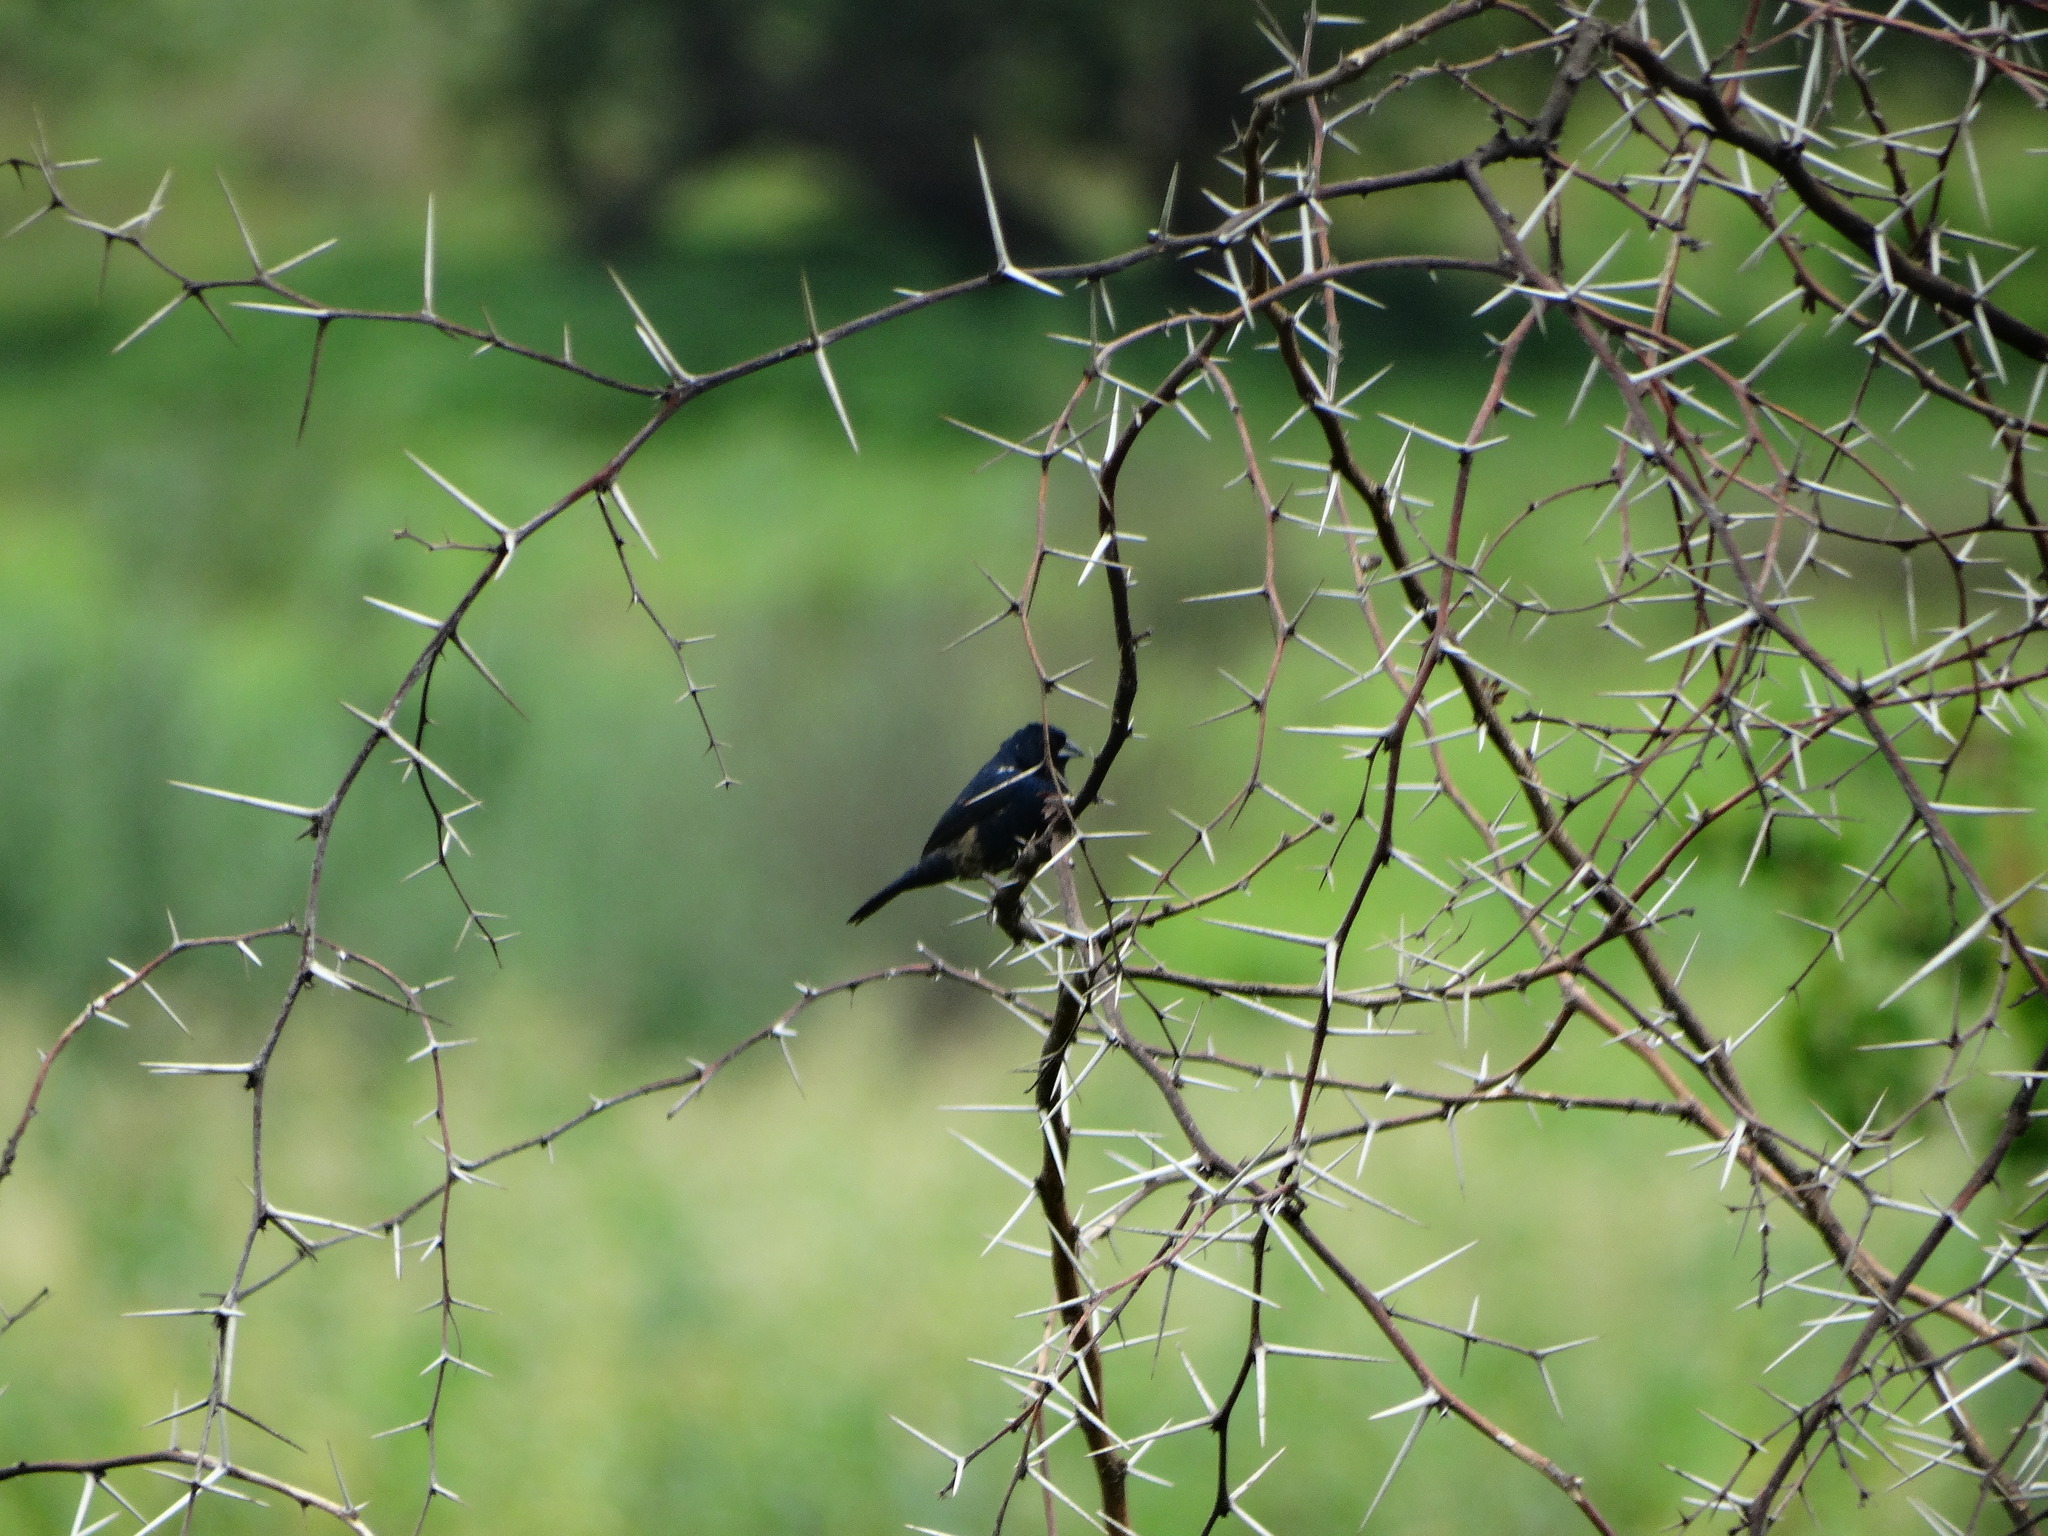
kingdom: Animalia
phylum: Chordata
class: Aves
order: Passeriformes
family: Thraupidae
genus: Volatinia
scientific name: Volatinia jacarina
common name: Blue-black grassquit
